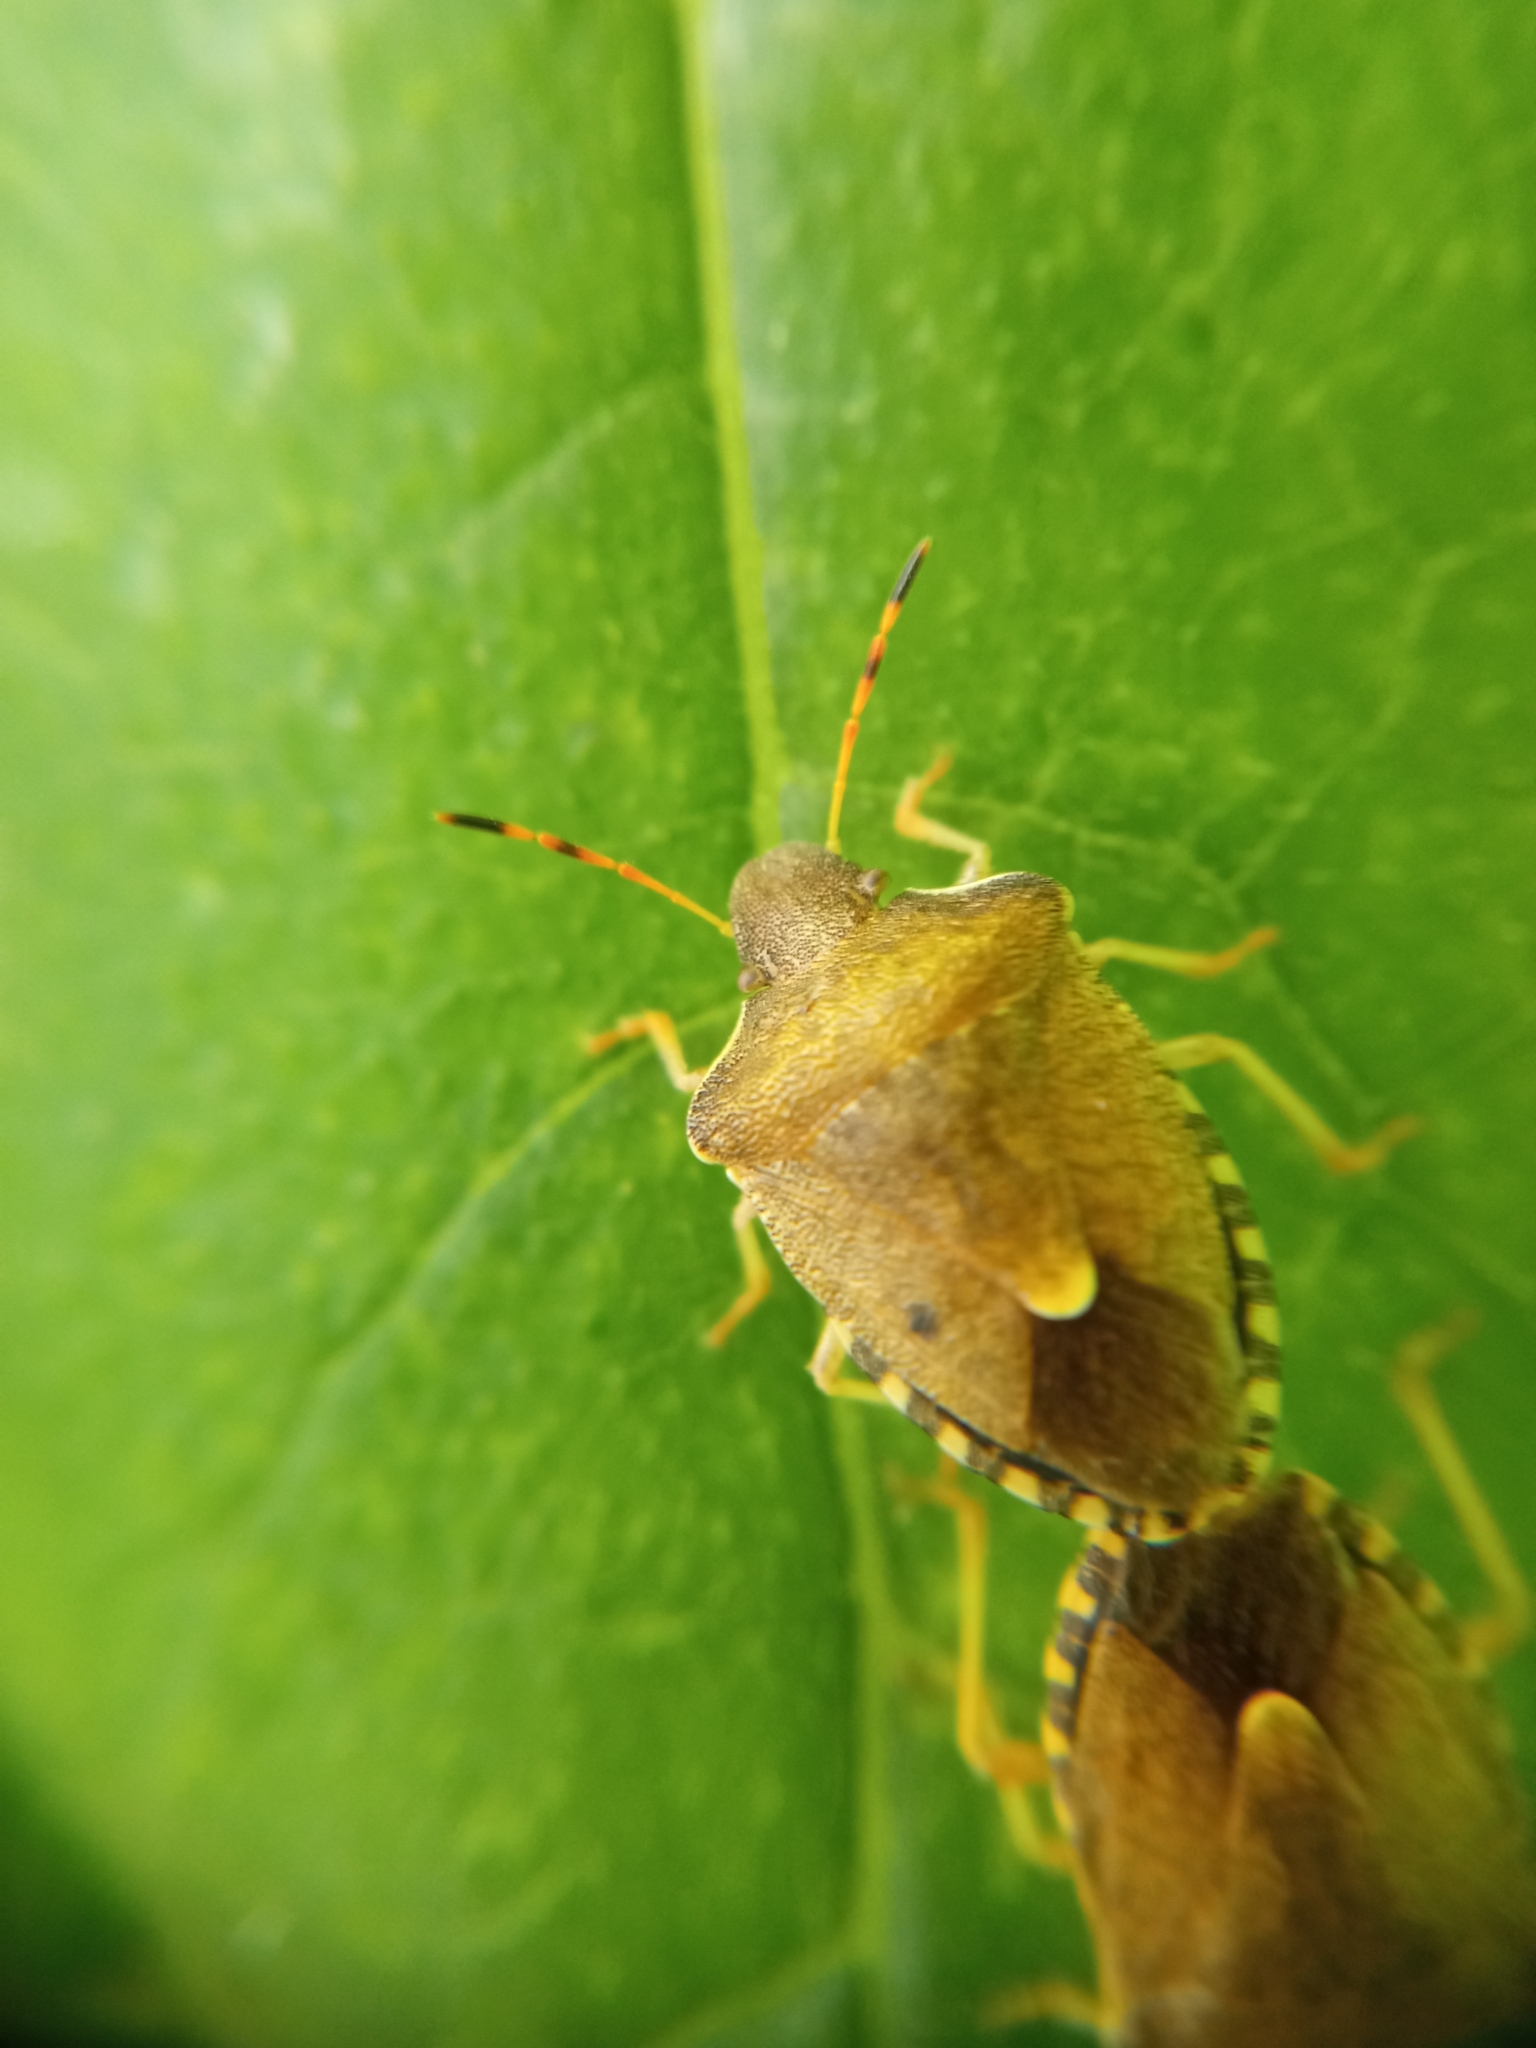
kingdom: Animalia
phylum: Arthropoda
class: Insecta
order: Hemiptera
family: Pentatomidae
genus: Holcostethus
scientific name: Holcostethus strictus
